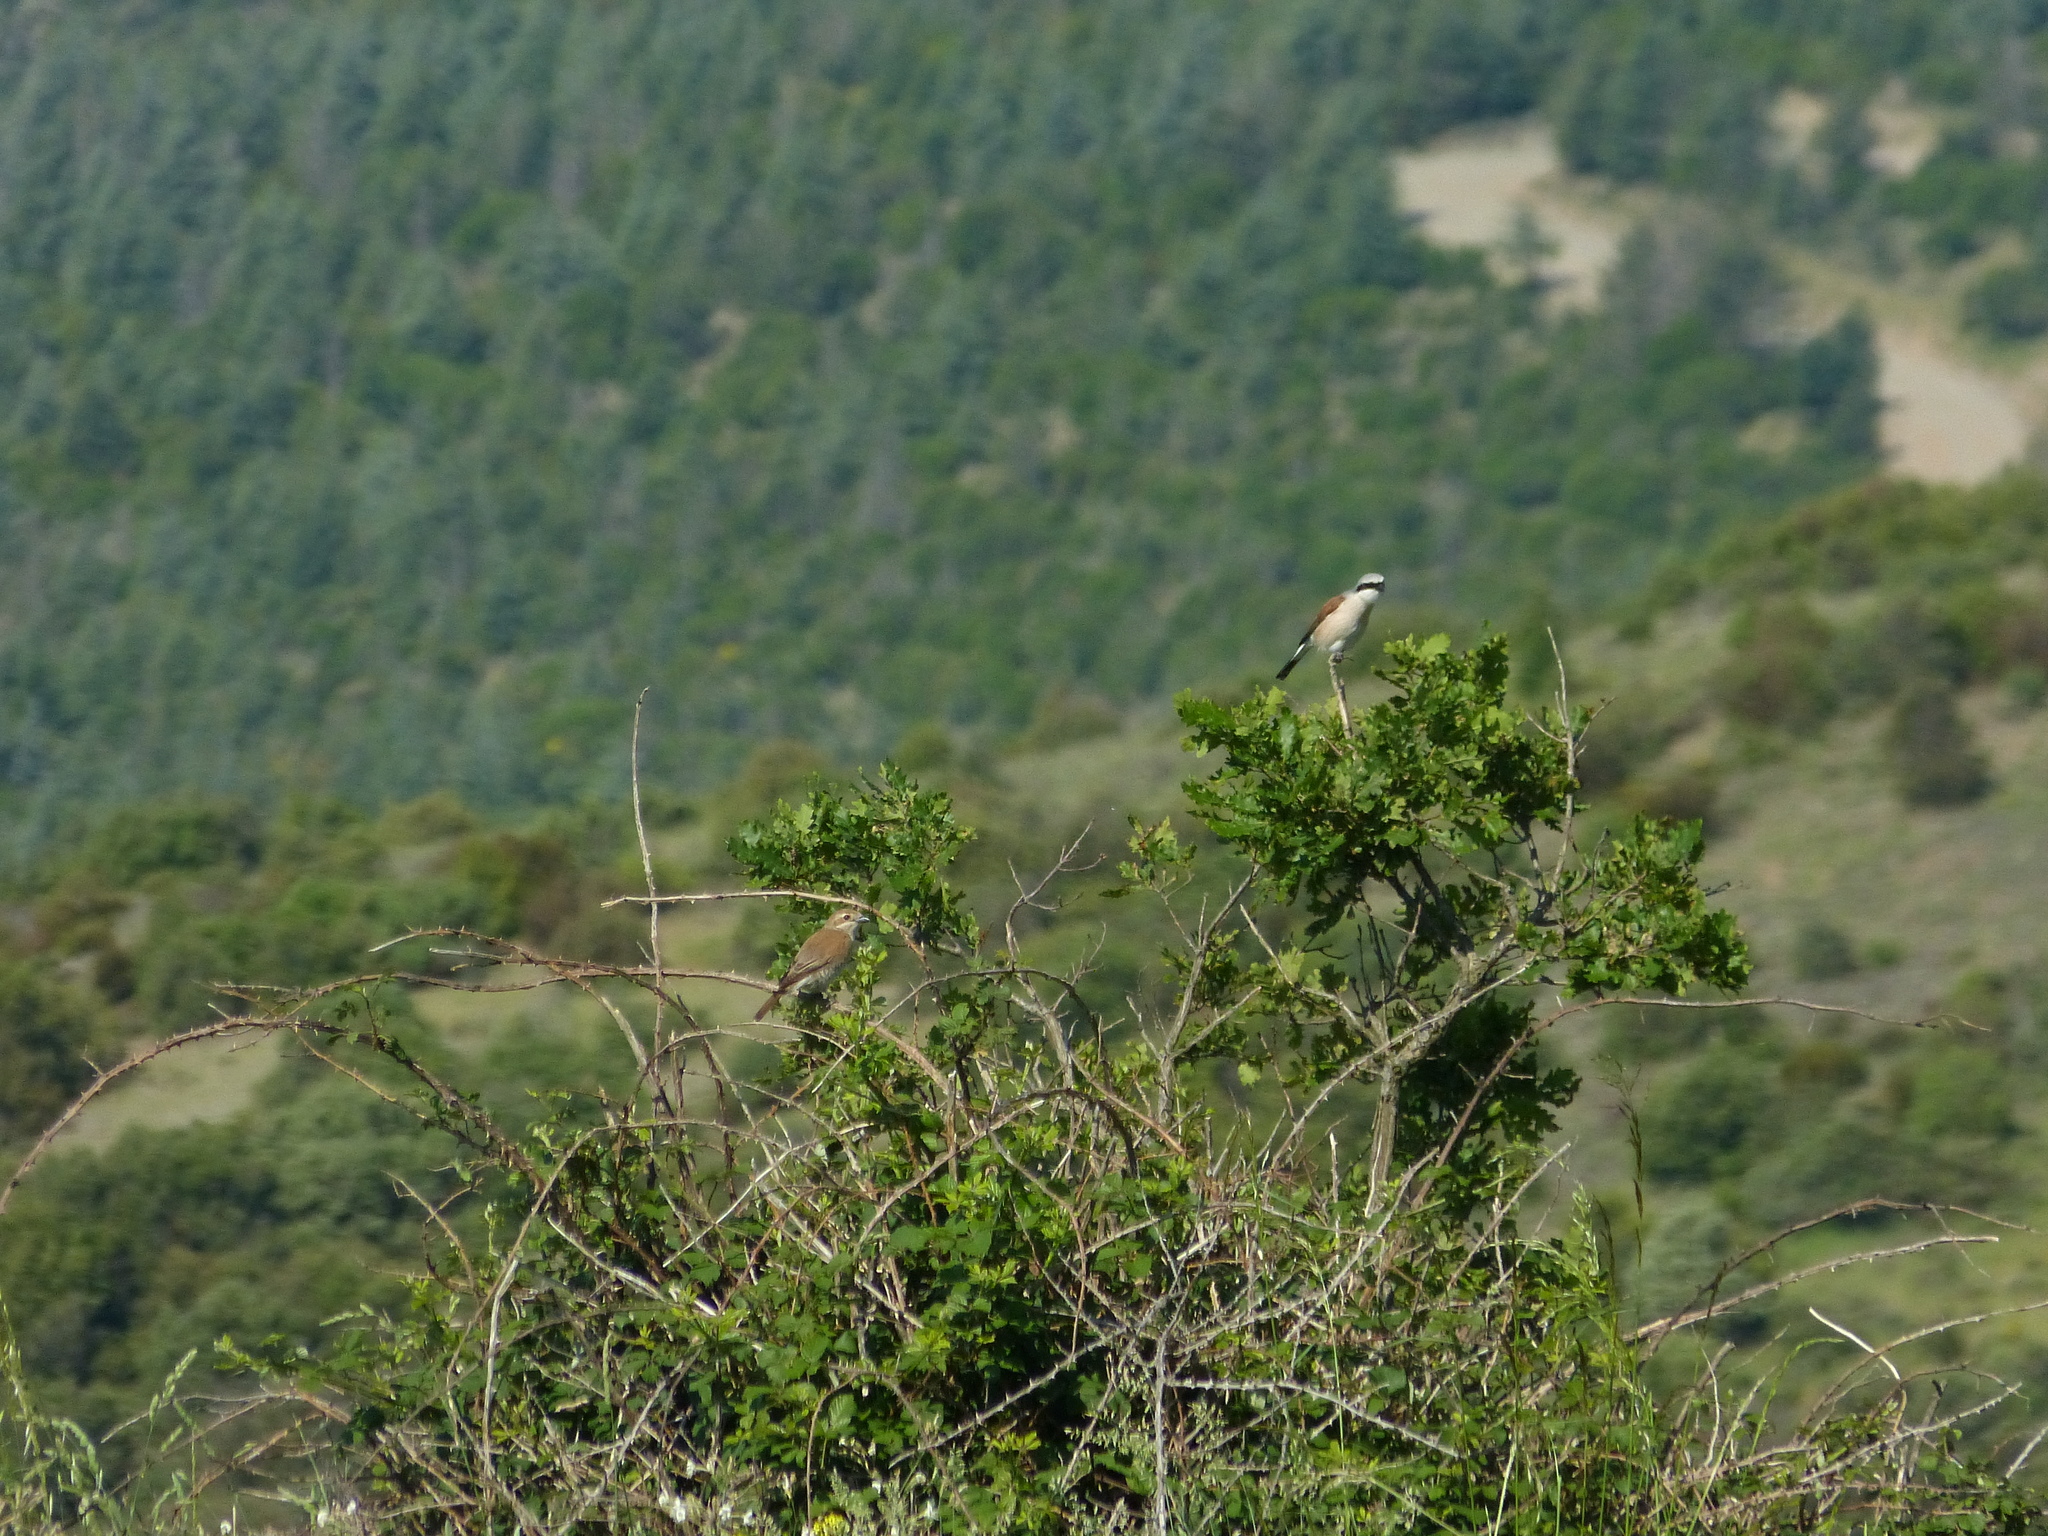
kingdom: Animalia
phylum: Chordata
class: Aves
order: Passeriformes
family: Laniidae
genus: Lanius
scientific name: Lanius collurio
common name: Red-backed shrike
